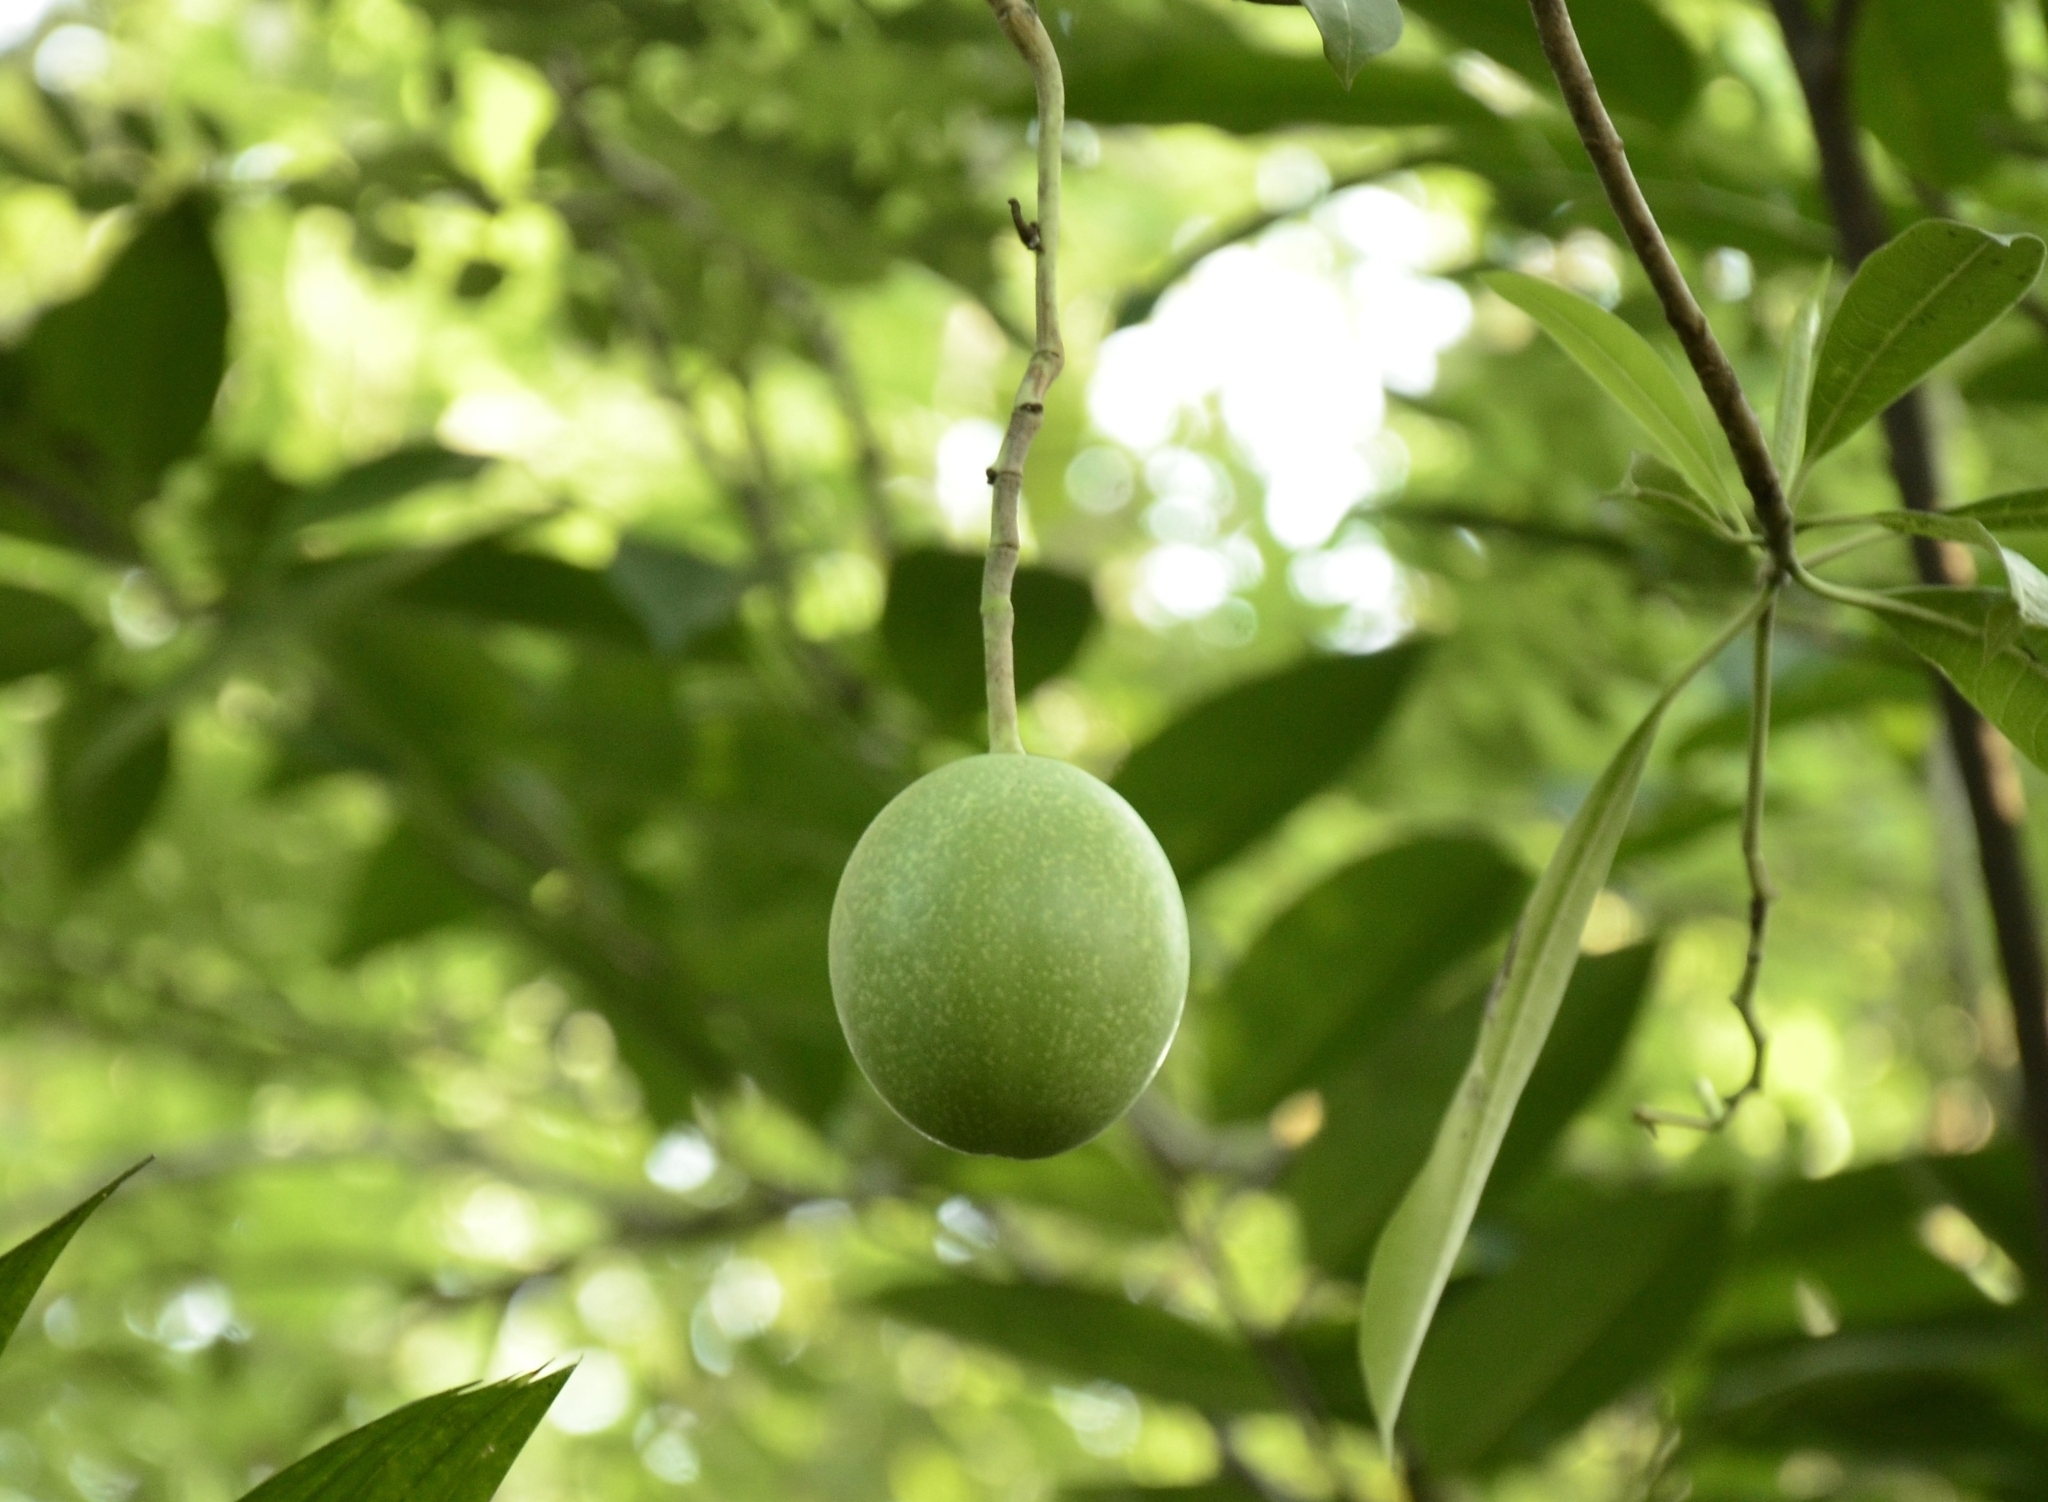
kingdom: Plantae
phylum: Tracheophyta
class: Magnoliopsida
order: Gentianales
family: Apocynaceae
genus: Cerbera
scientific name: Cerbera odollam
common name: Pong-pong
